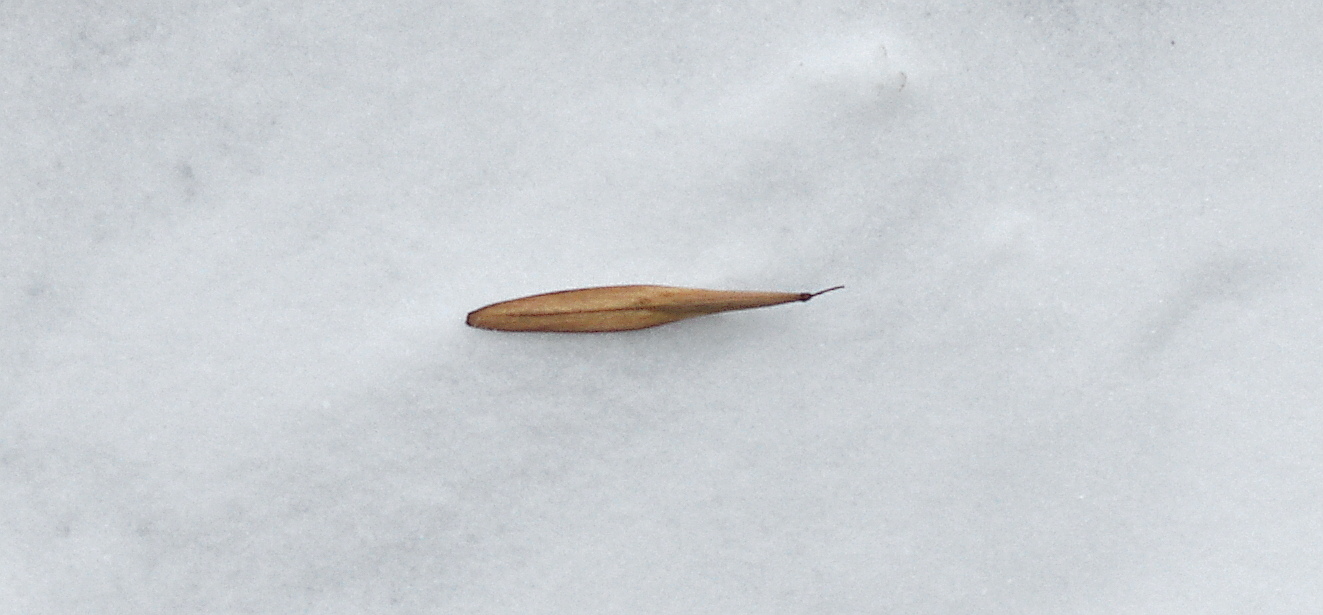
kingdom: Plantae
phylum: Tracheophyta
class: Magnoliopsida
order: Lamiales
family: Oleaceae
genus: Fraxinus
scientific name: Fraxinus pennsylvanica
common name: Green ash
